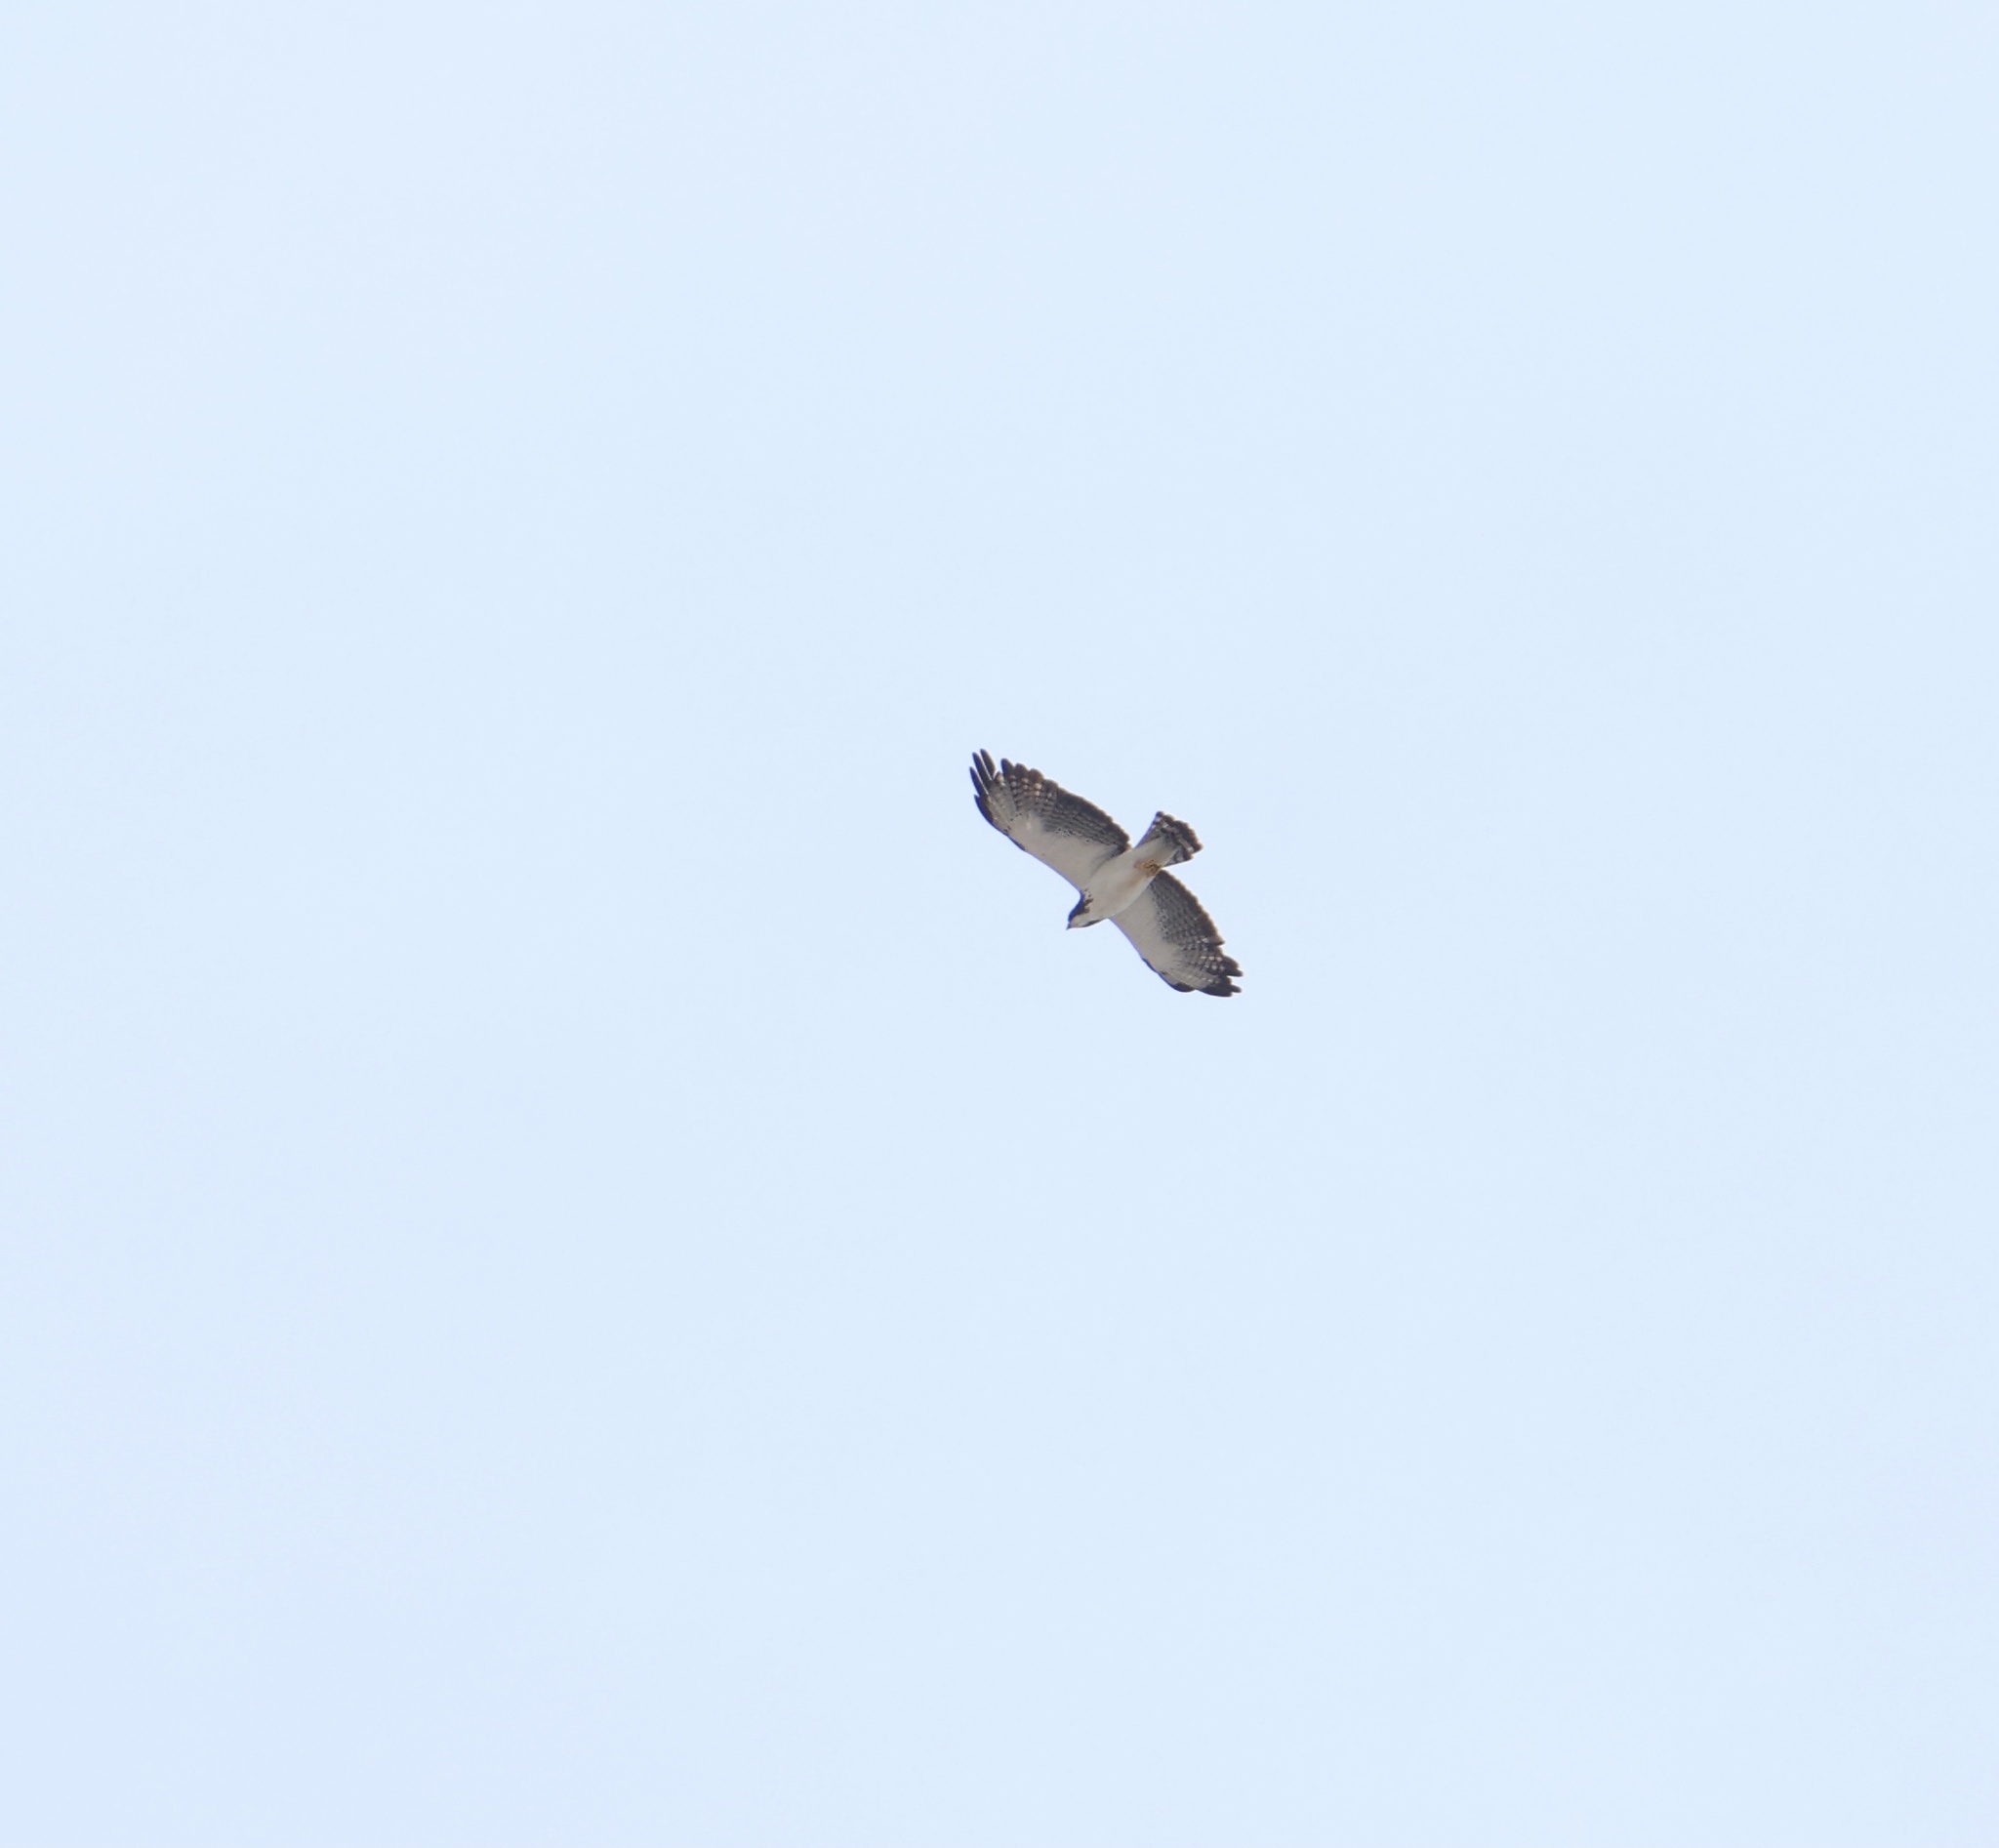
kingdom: Animalia
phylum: Chordata
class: Aves
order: Accipitriformes
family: Accipitridae
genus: Buteo
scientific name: Buteo brachyurus
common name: Short-tailed hawk
